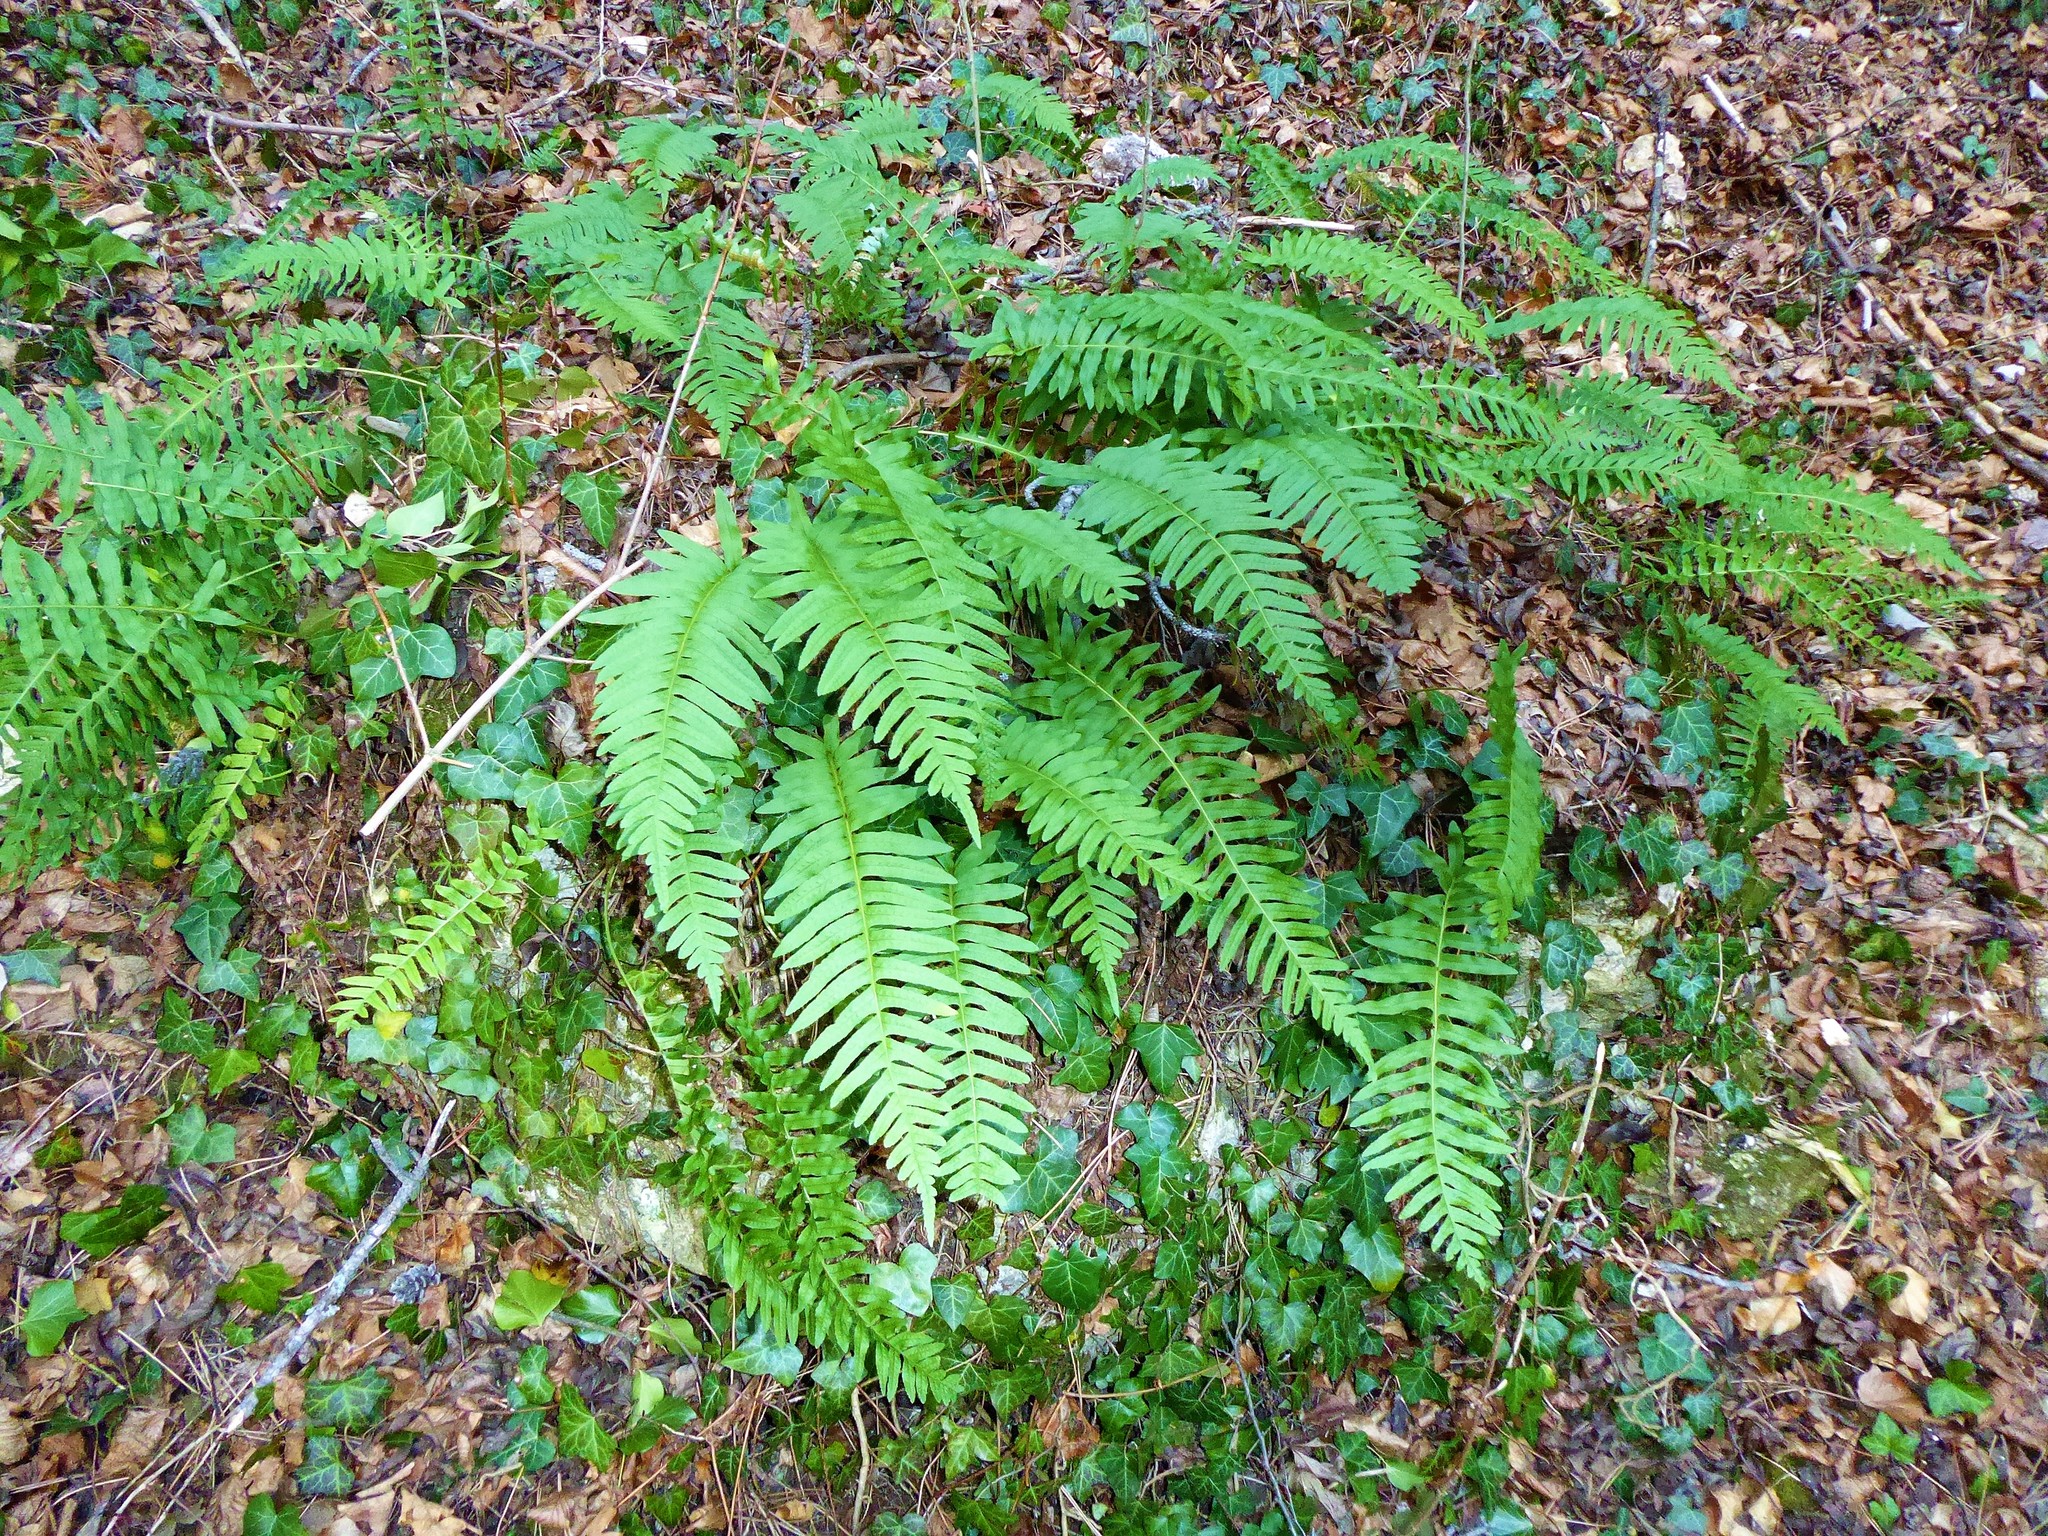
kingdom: Plantae
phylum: Tracheophyta
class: Polypodiopsida
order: Polypodiales
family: Polypodiaceae
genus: Polypodium
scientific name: Polypodium interjectum
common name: Intermediate polypody
